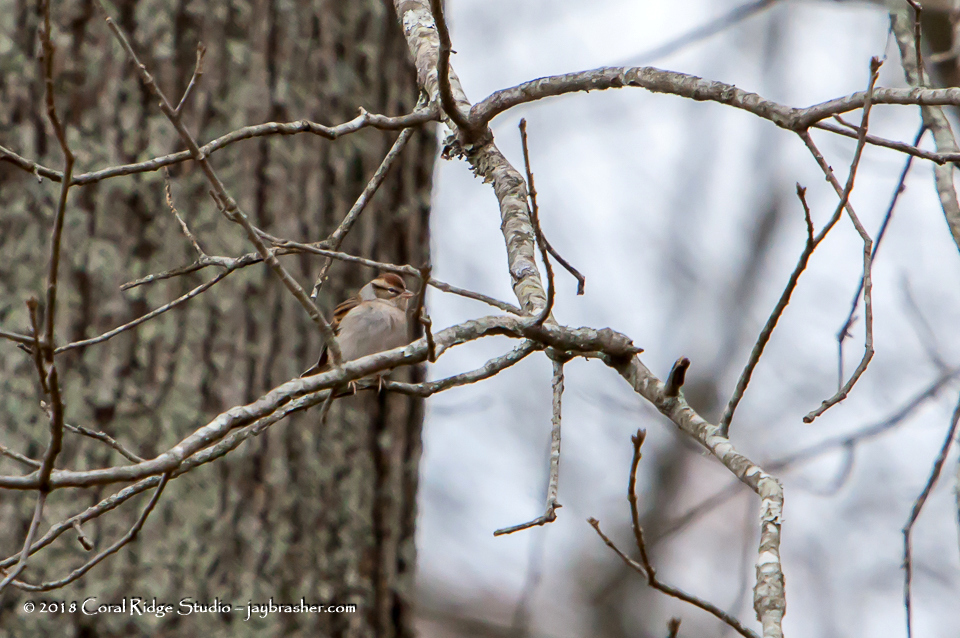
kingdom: Animalia
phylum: Chordata
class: Aves
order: Passeriformes
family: Passerellidae
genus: Spizella
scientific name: Spizella passerina
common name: Chipping sparrow
